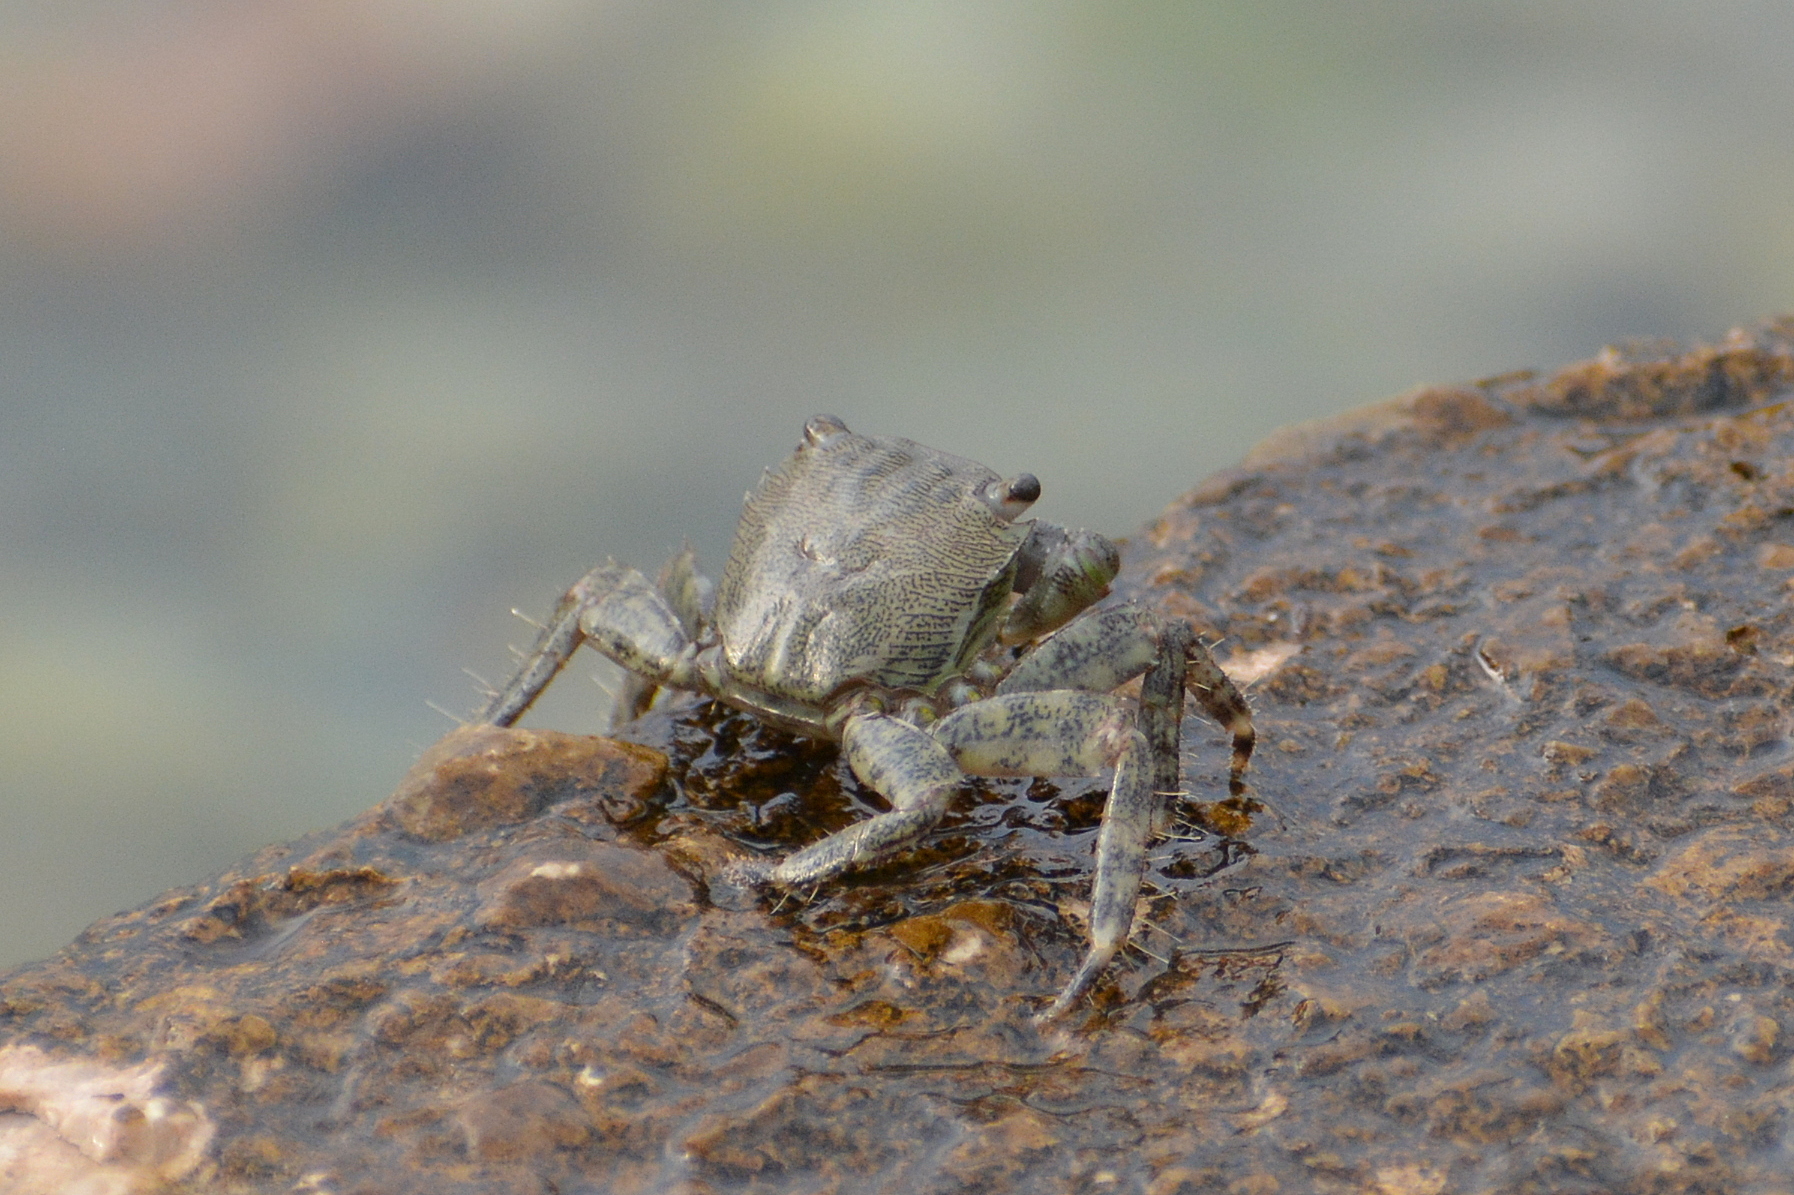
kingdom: Animalia
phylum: Arthropoda
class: Malacostraca
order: Decapoda
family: Grapsidae
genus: Pachygrapsus
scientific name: Pachygrapsus marmoratus
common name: Marbled rock crab
